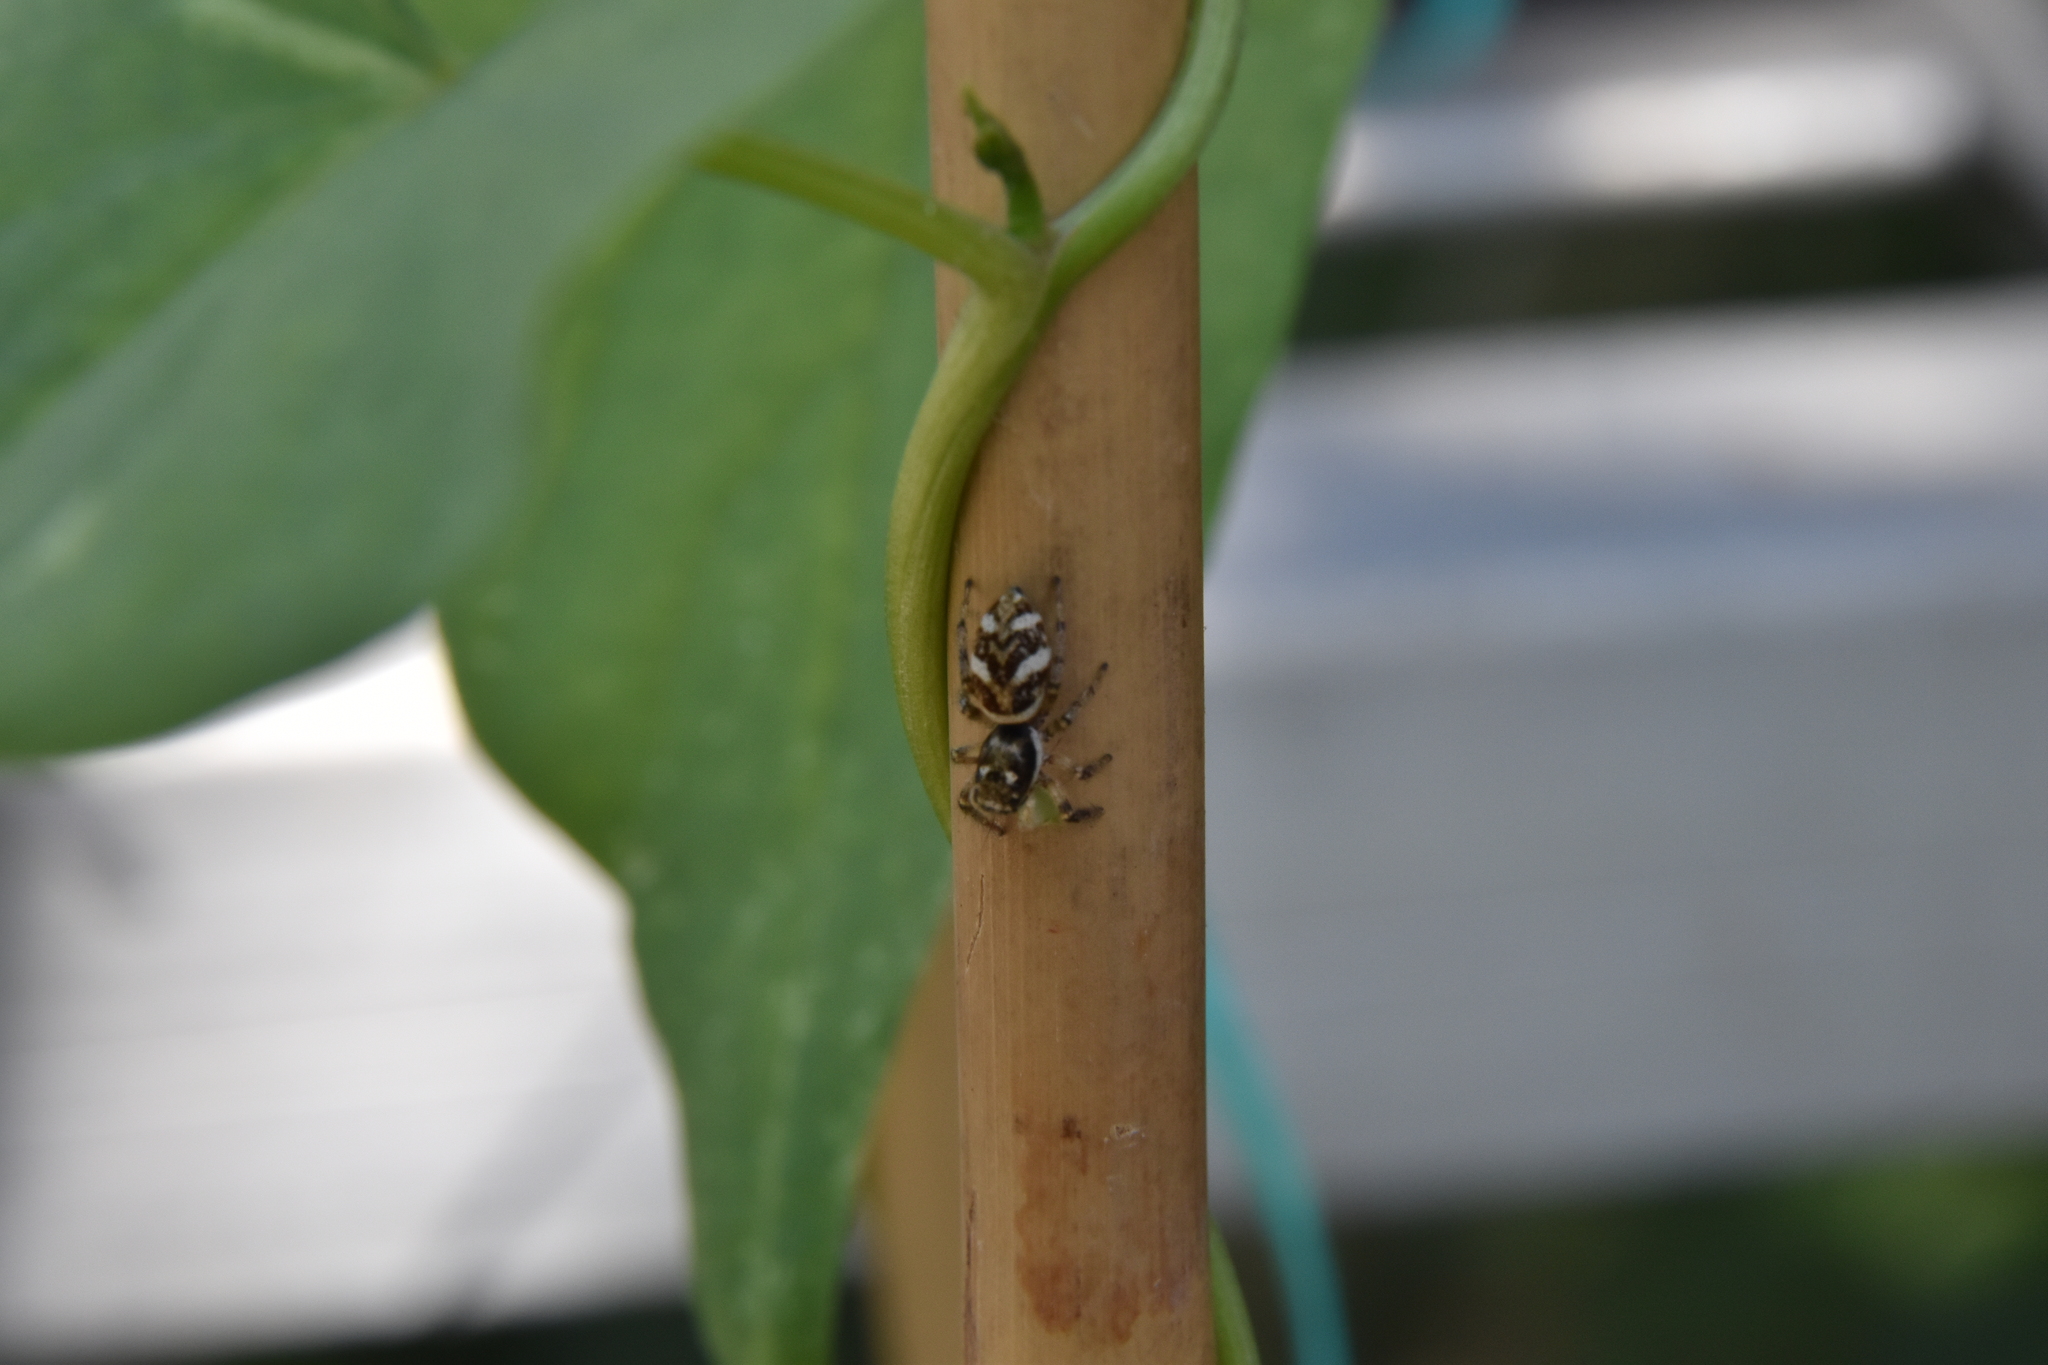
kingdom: Animalia
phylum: Arthropoda
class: Arachnida
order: Araneae
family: Salticidae
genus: Salticus
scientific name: Salticus scenicus
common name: Zebra jumper
